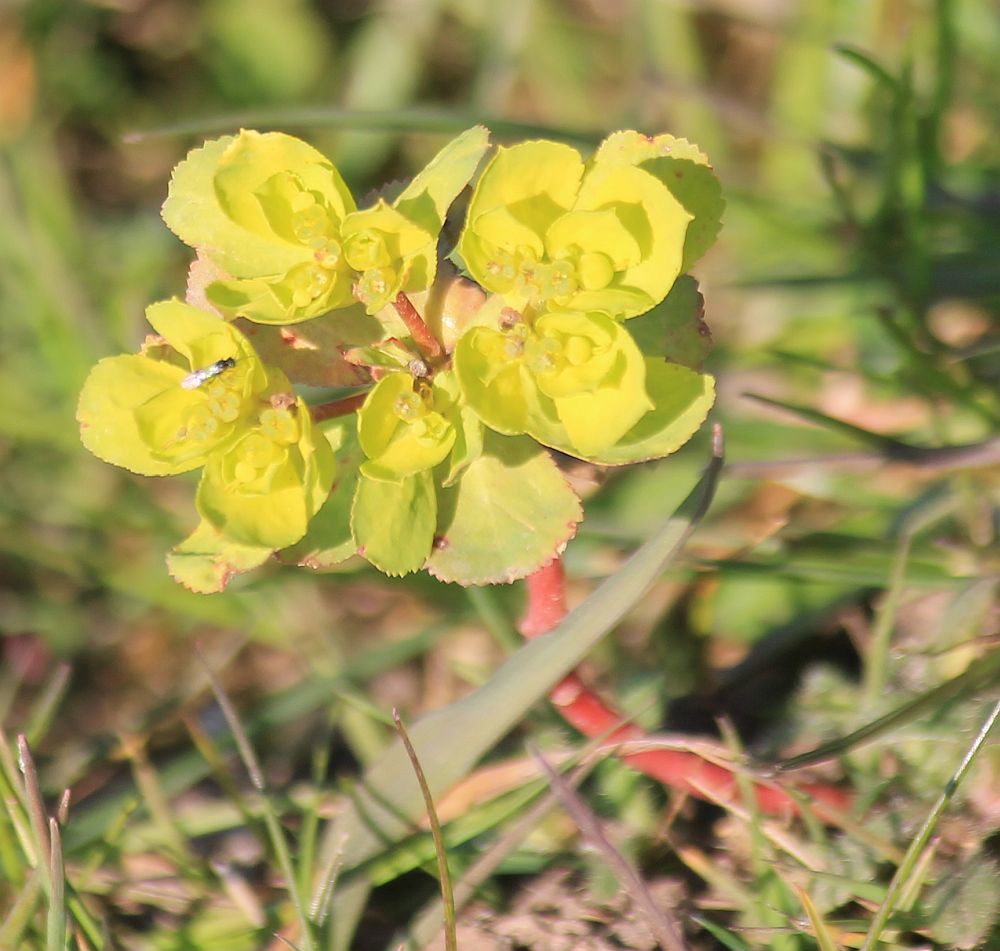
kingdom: Plantae
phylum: Tracheophyta
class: Magnoliopsida
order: Malpighiales
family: Euphorbiaceae
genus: Euphorbia
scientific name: Euphorbia helioscopia
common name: Sun spurge
